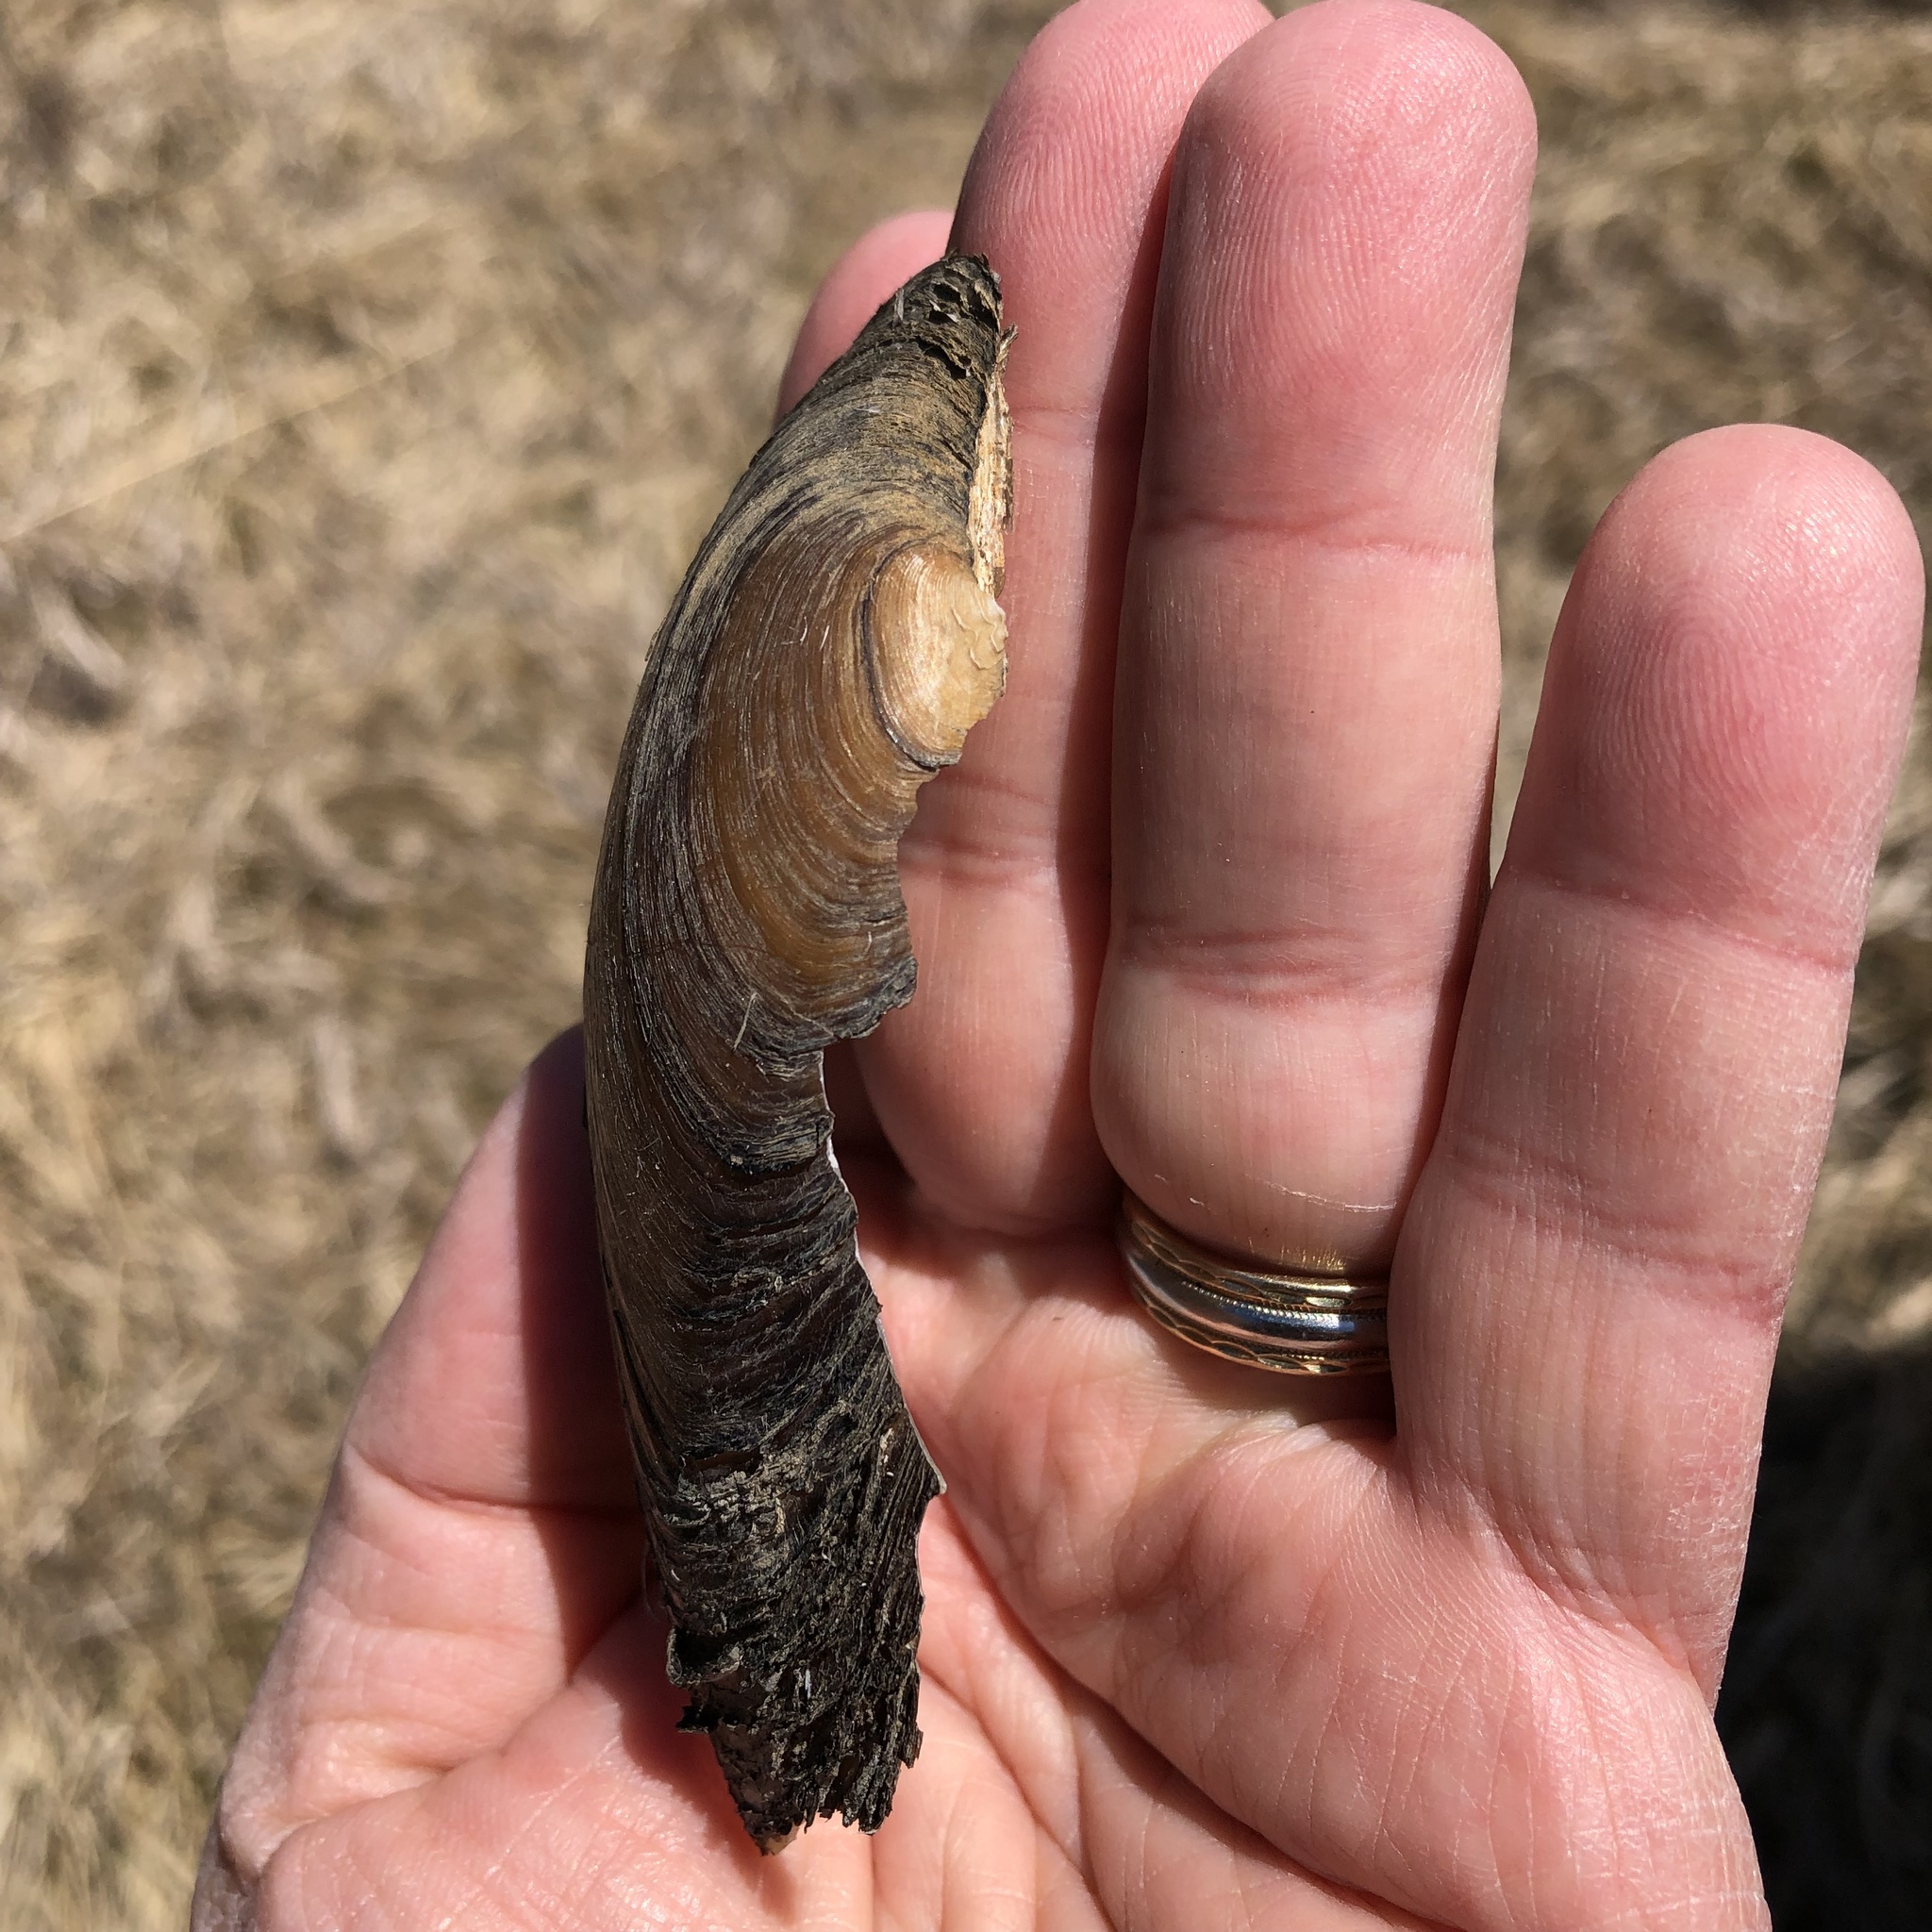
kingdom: Animalia
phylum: Mollusca
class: Bivalvia
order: Unionida
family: Unionidae
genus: Pyganodon
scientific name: Pyganodon grandis
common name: Giant floater
